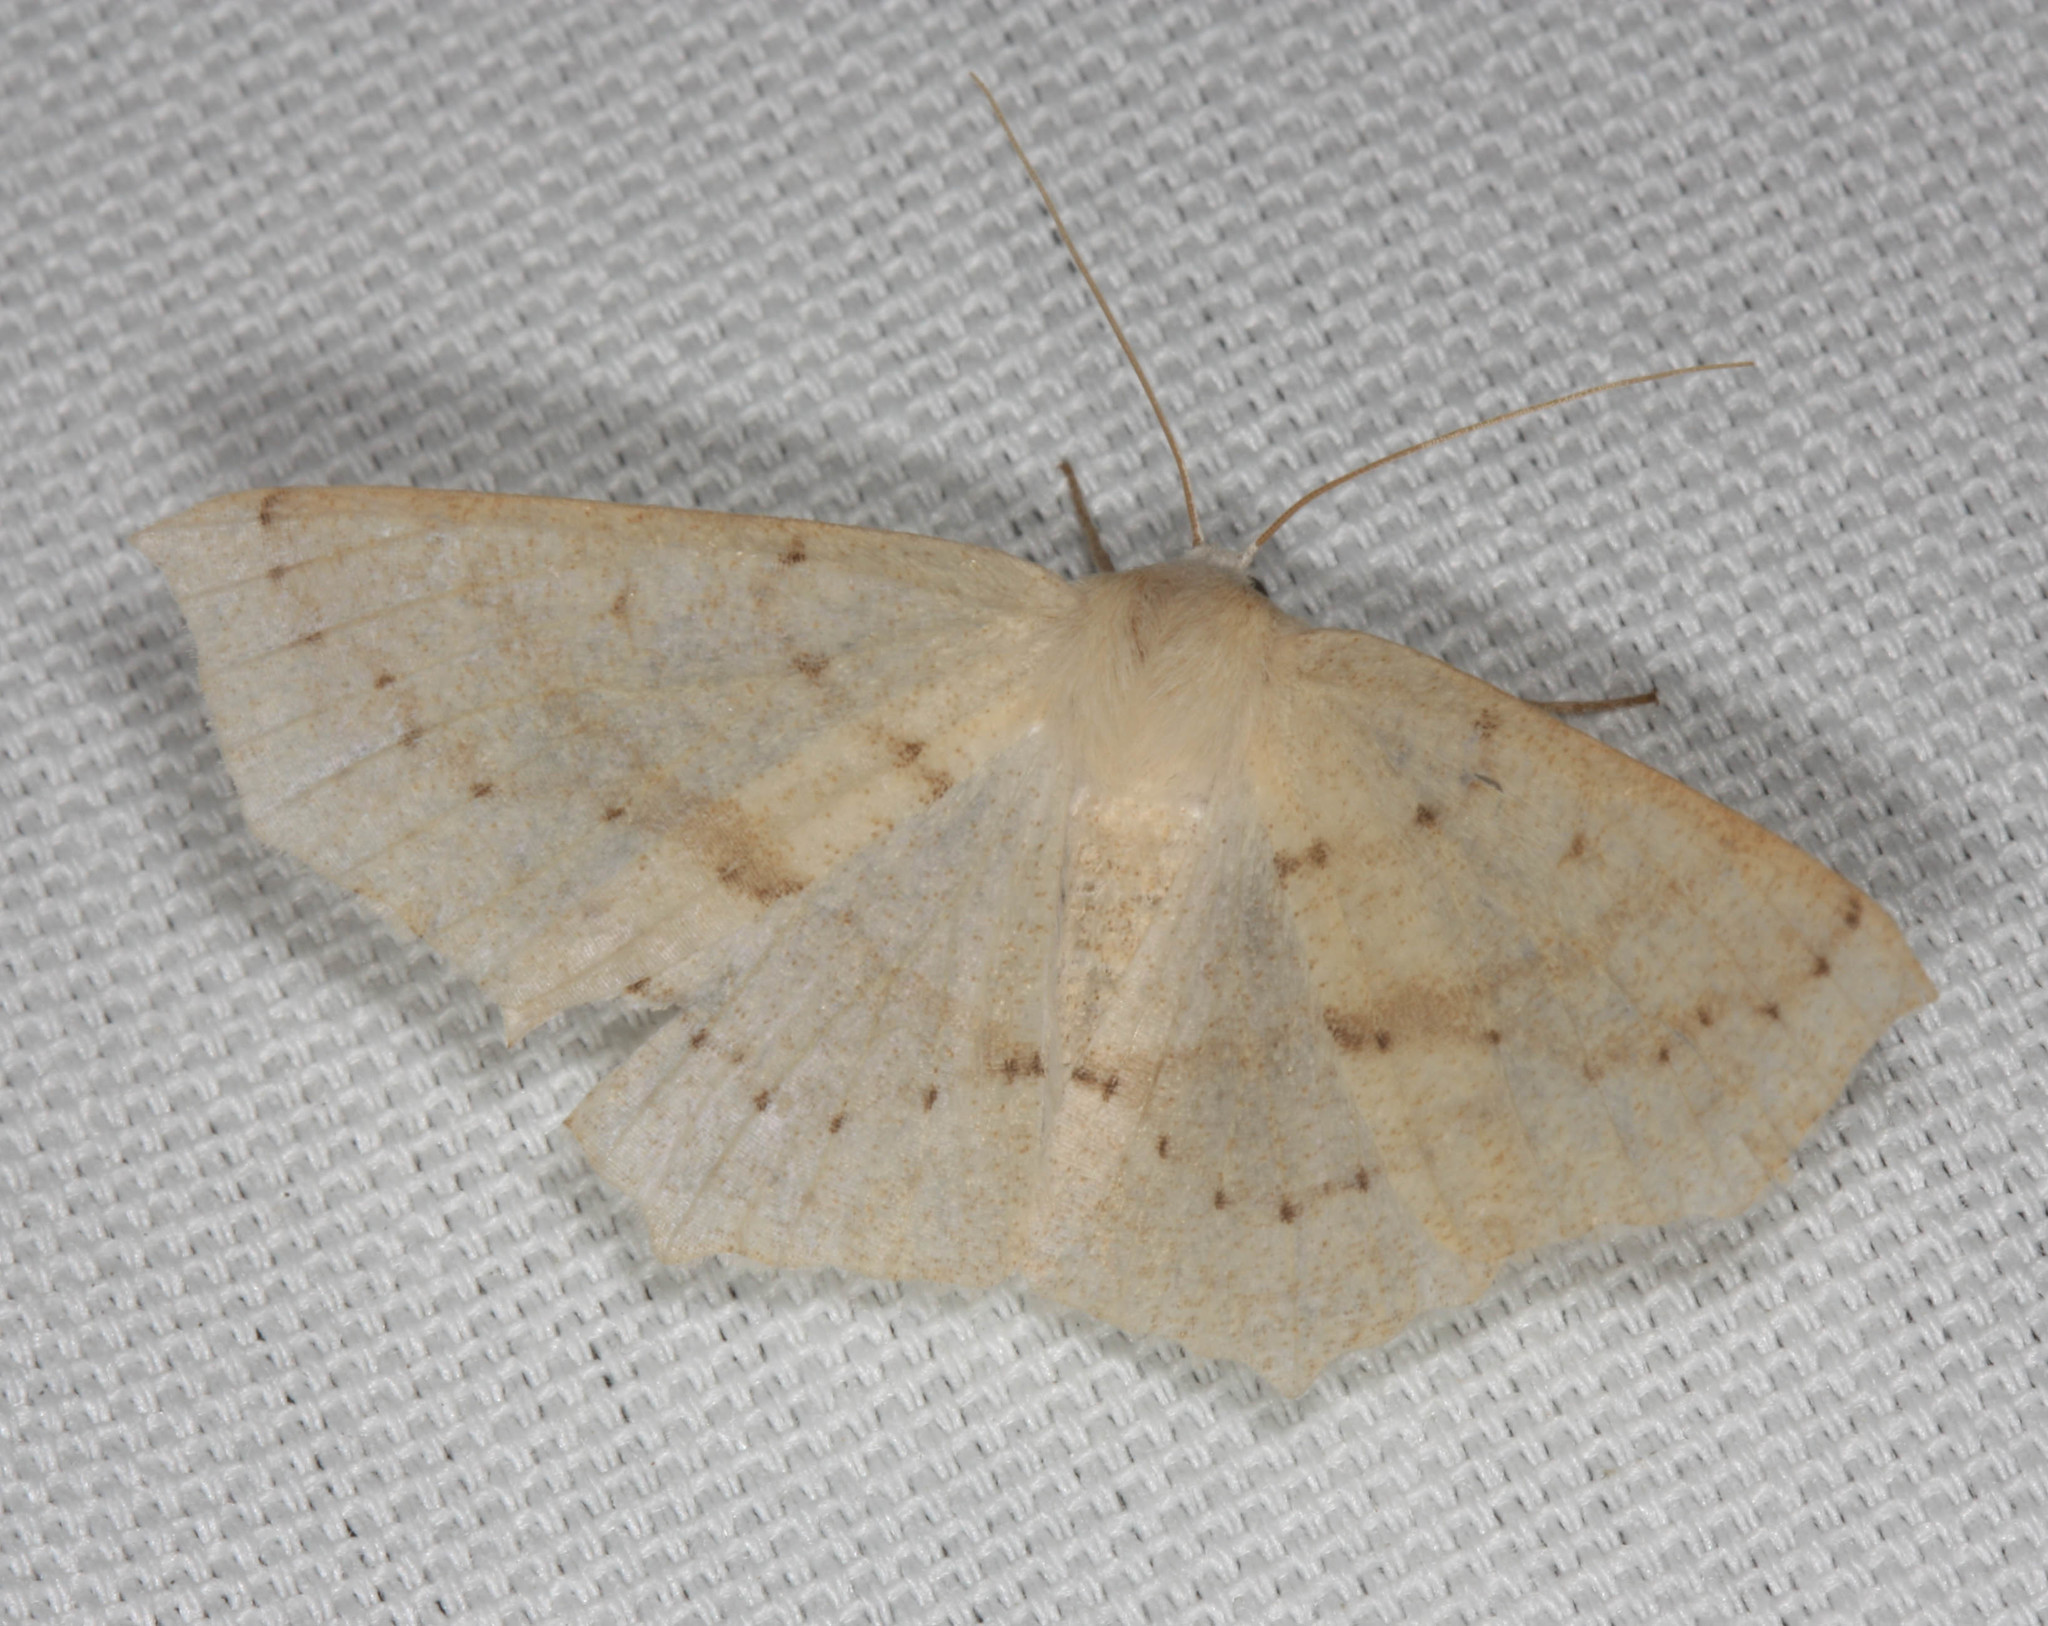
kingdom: Animalia
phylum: Arthropoda
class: Insecta
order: Lepidoptera
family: Geometridae
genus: Sabulodes
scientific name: Sabulodes aegrotata
